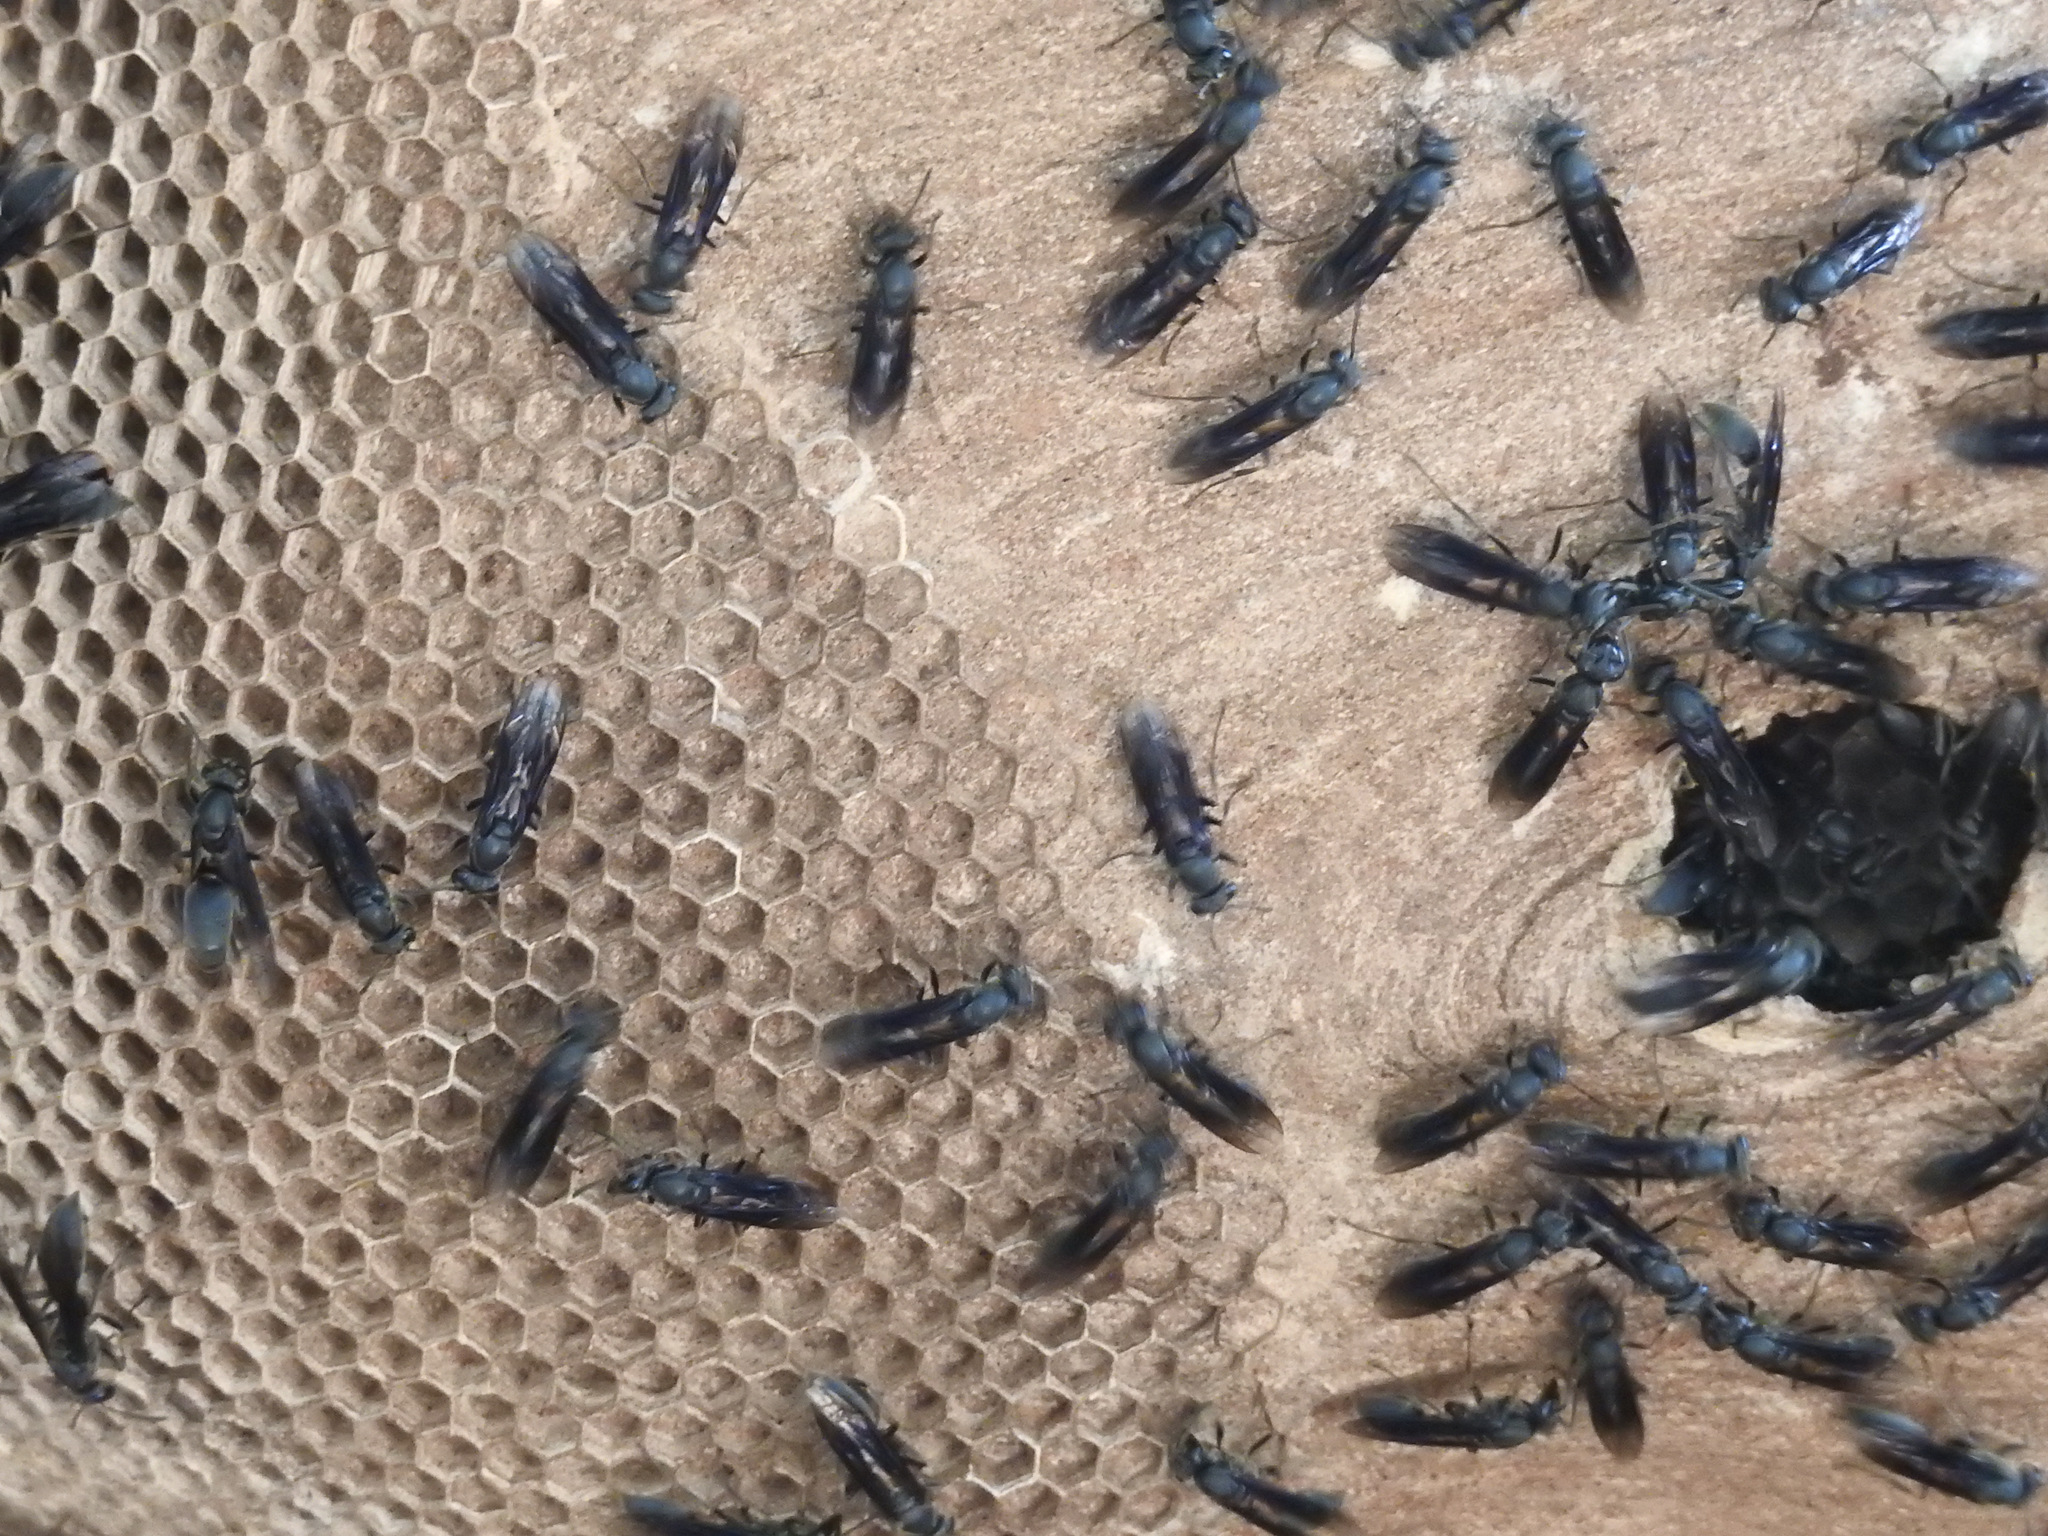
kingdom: Animalia
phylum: Arthropoda
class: Insecta
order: Hymenoptera
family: Eumenidae
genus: Polybia
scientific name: Polybia ignobilis
